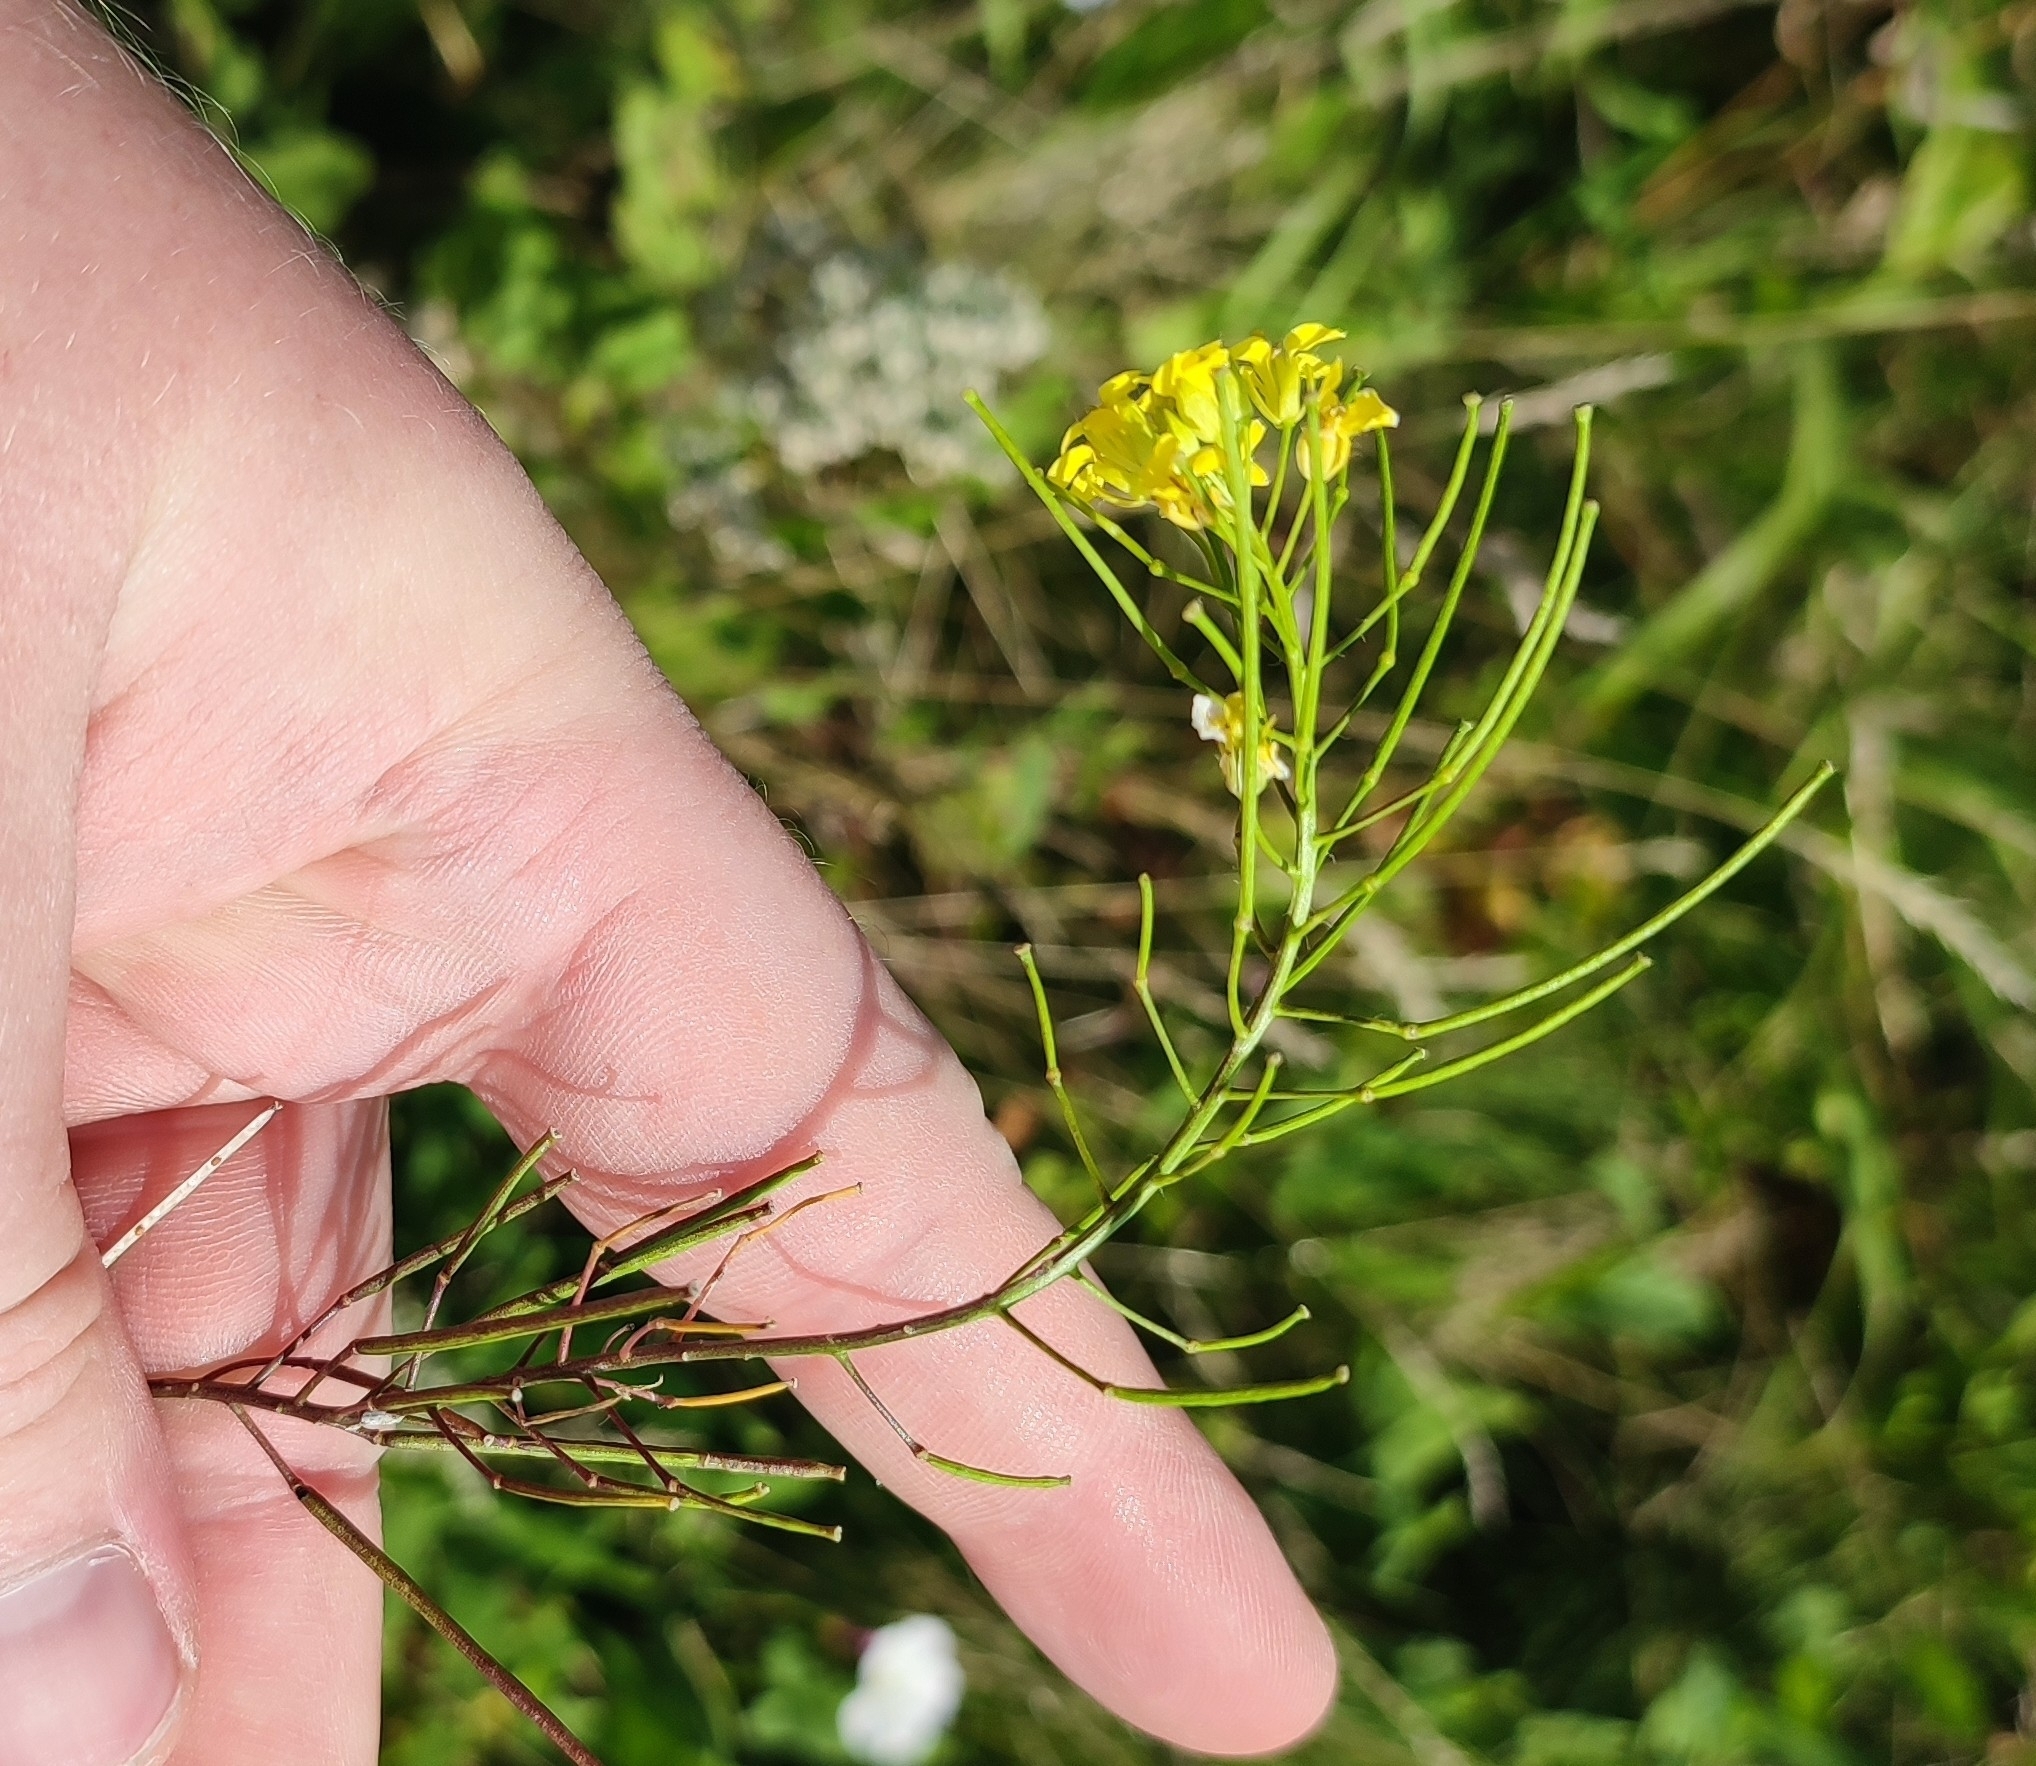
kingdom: Plantae
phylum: Tracheophyta
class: Magnoliopsida
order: Brassicales
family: Brassicaceae
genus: Sisymbrium
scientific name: Sisymbrium loeselii
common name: False london-rocket
